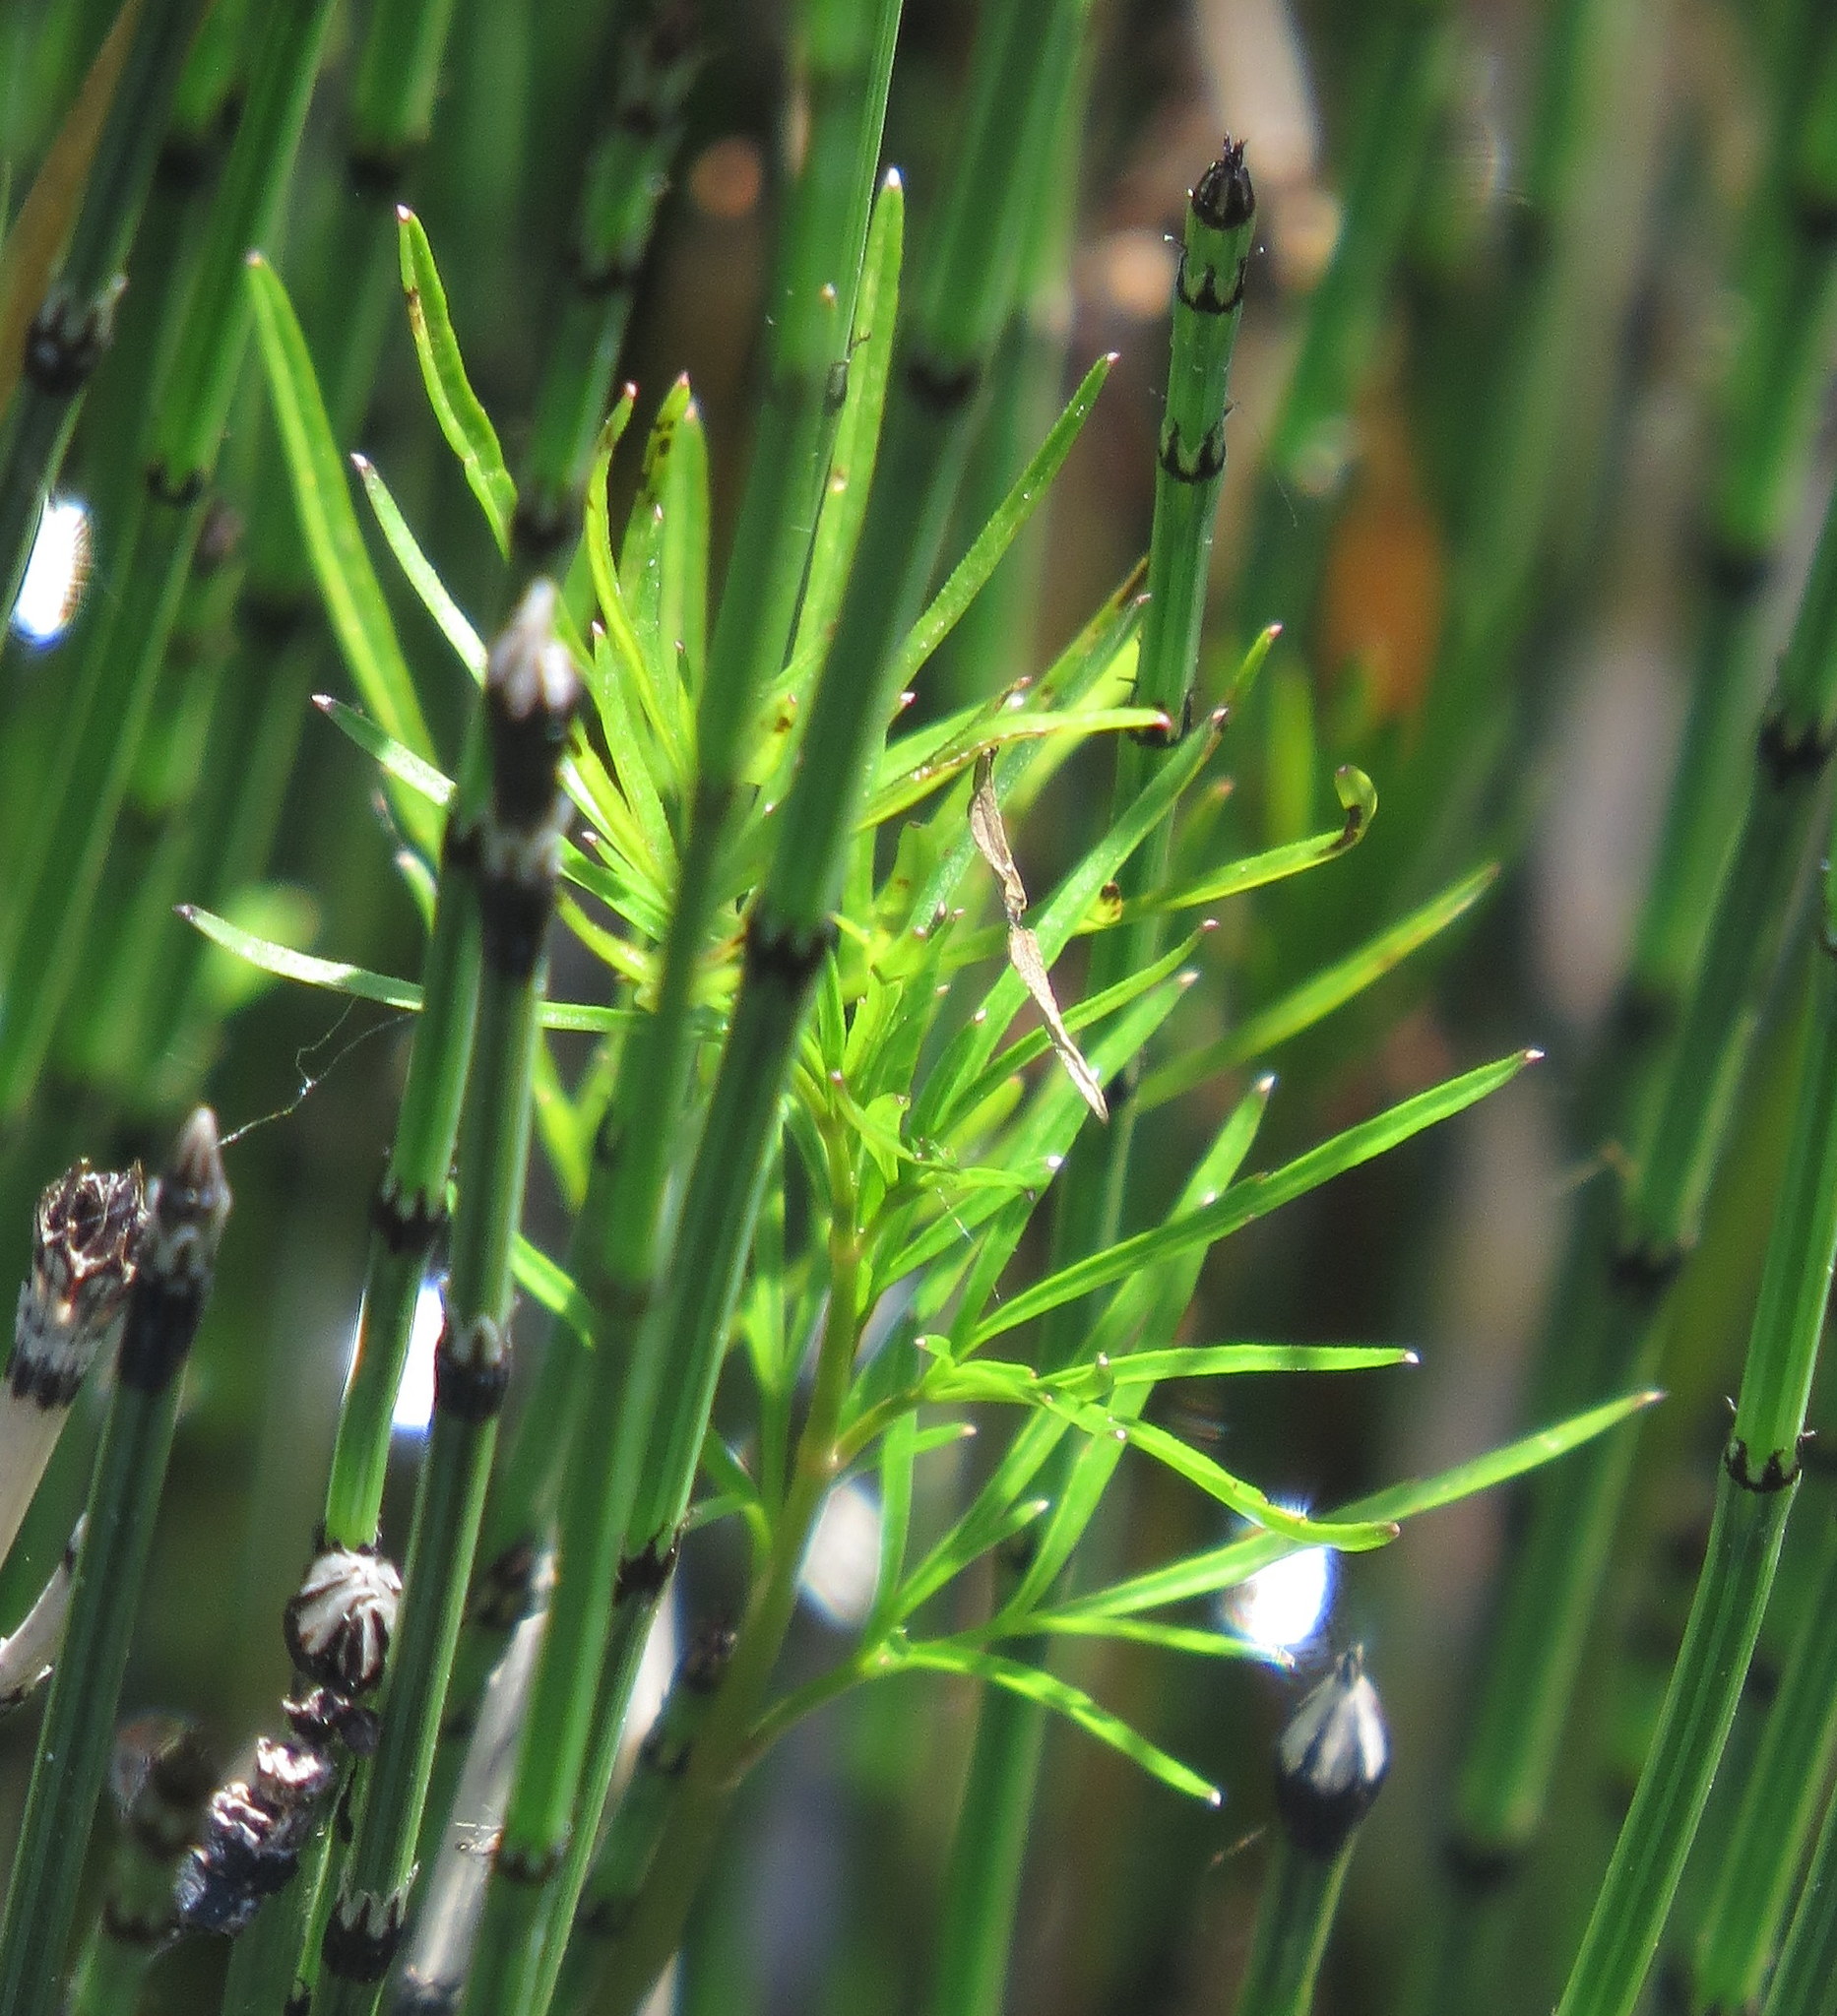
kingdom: Plantae
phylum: Tracheophyta
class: Polypodiopsida
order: Equisetales
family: Equisetaceae
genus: Equisetum
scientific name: Equisetum variegatum
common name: Variegated horsetail
